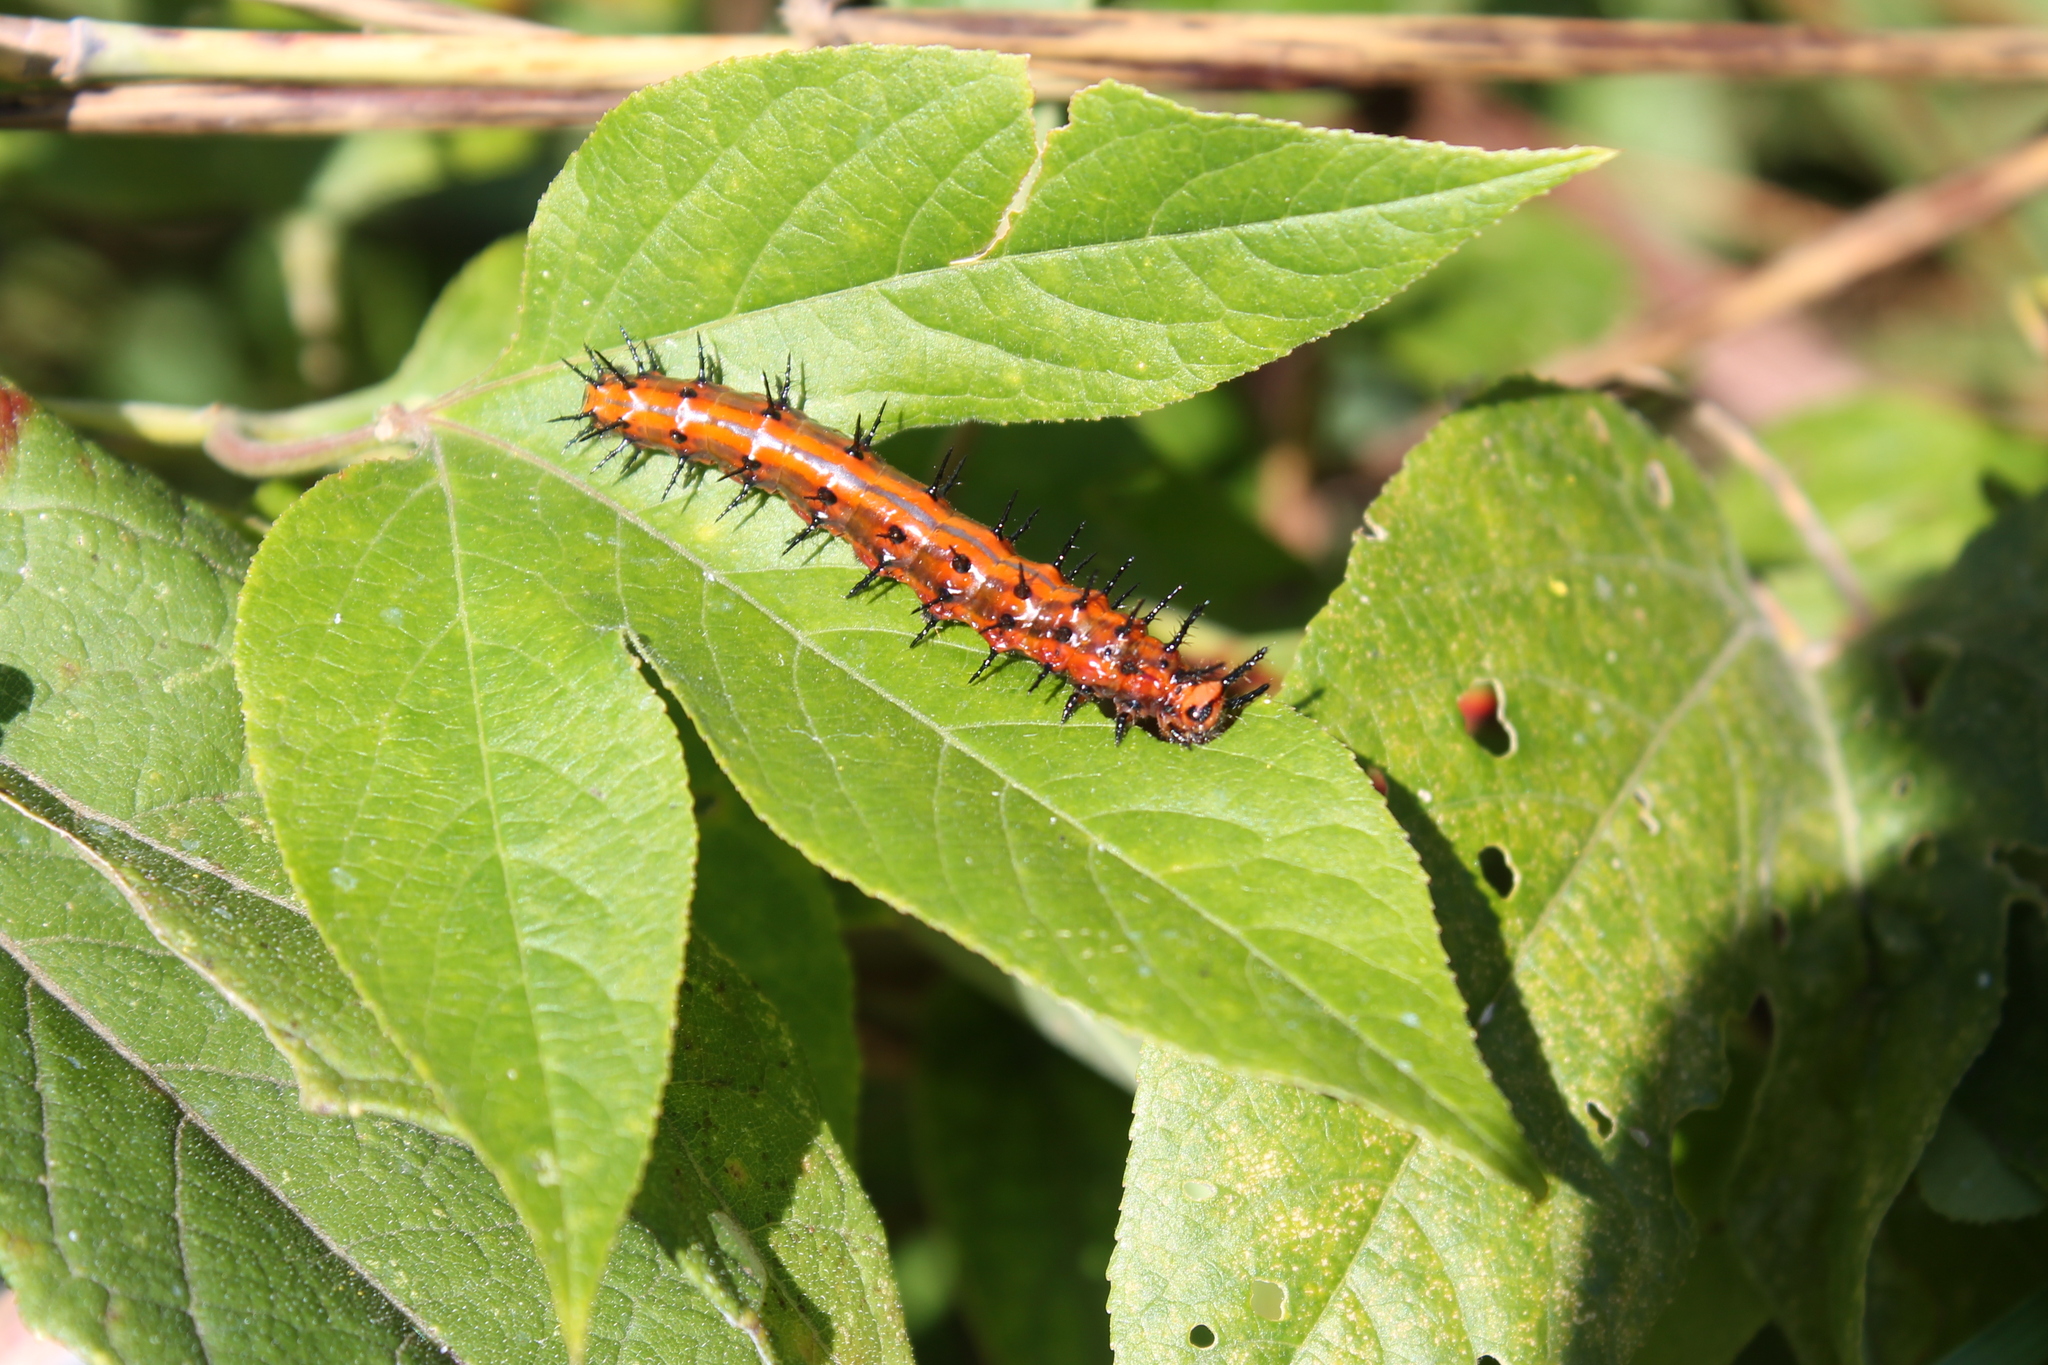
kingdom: Animalia
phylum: Arthropoda
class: Insecta
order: Lepidoptera
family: Nymphalidae
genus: Dione
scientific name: Dione vanillae
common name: Gulf fritillary
